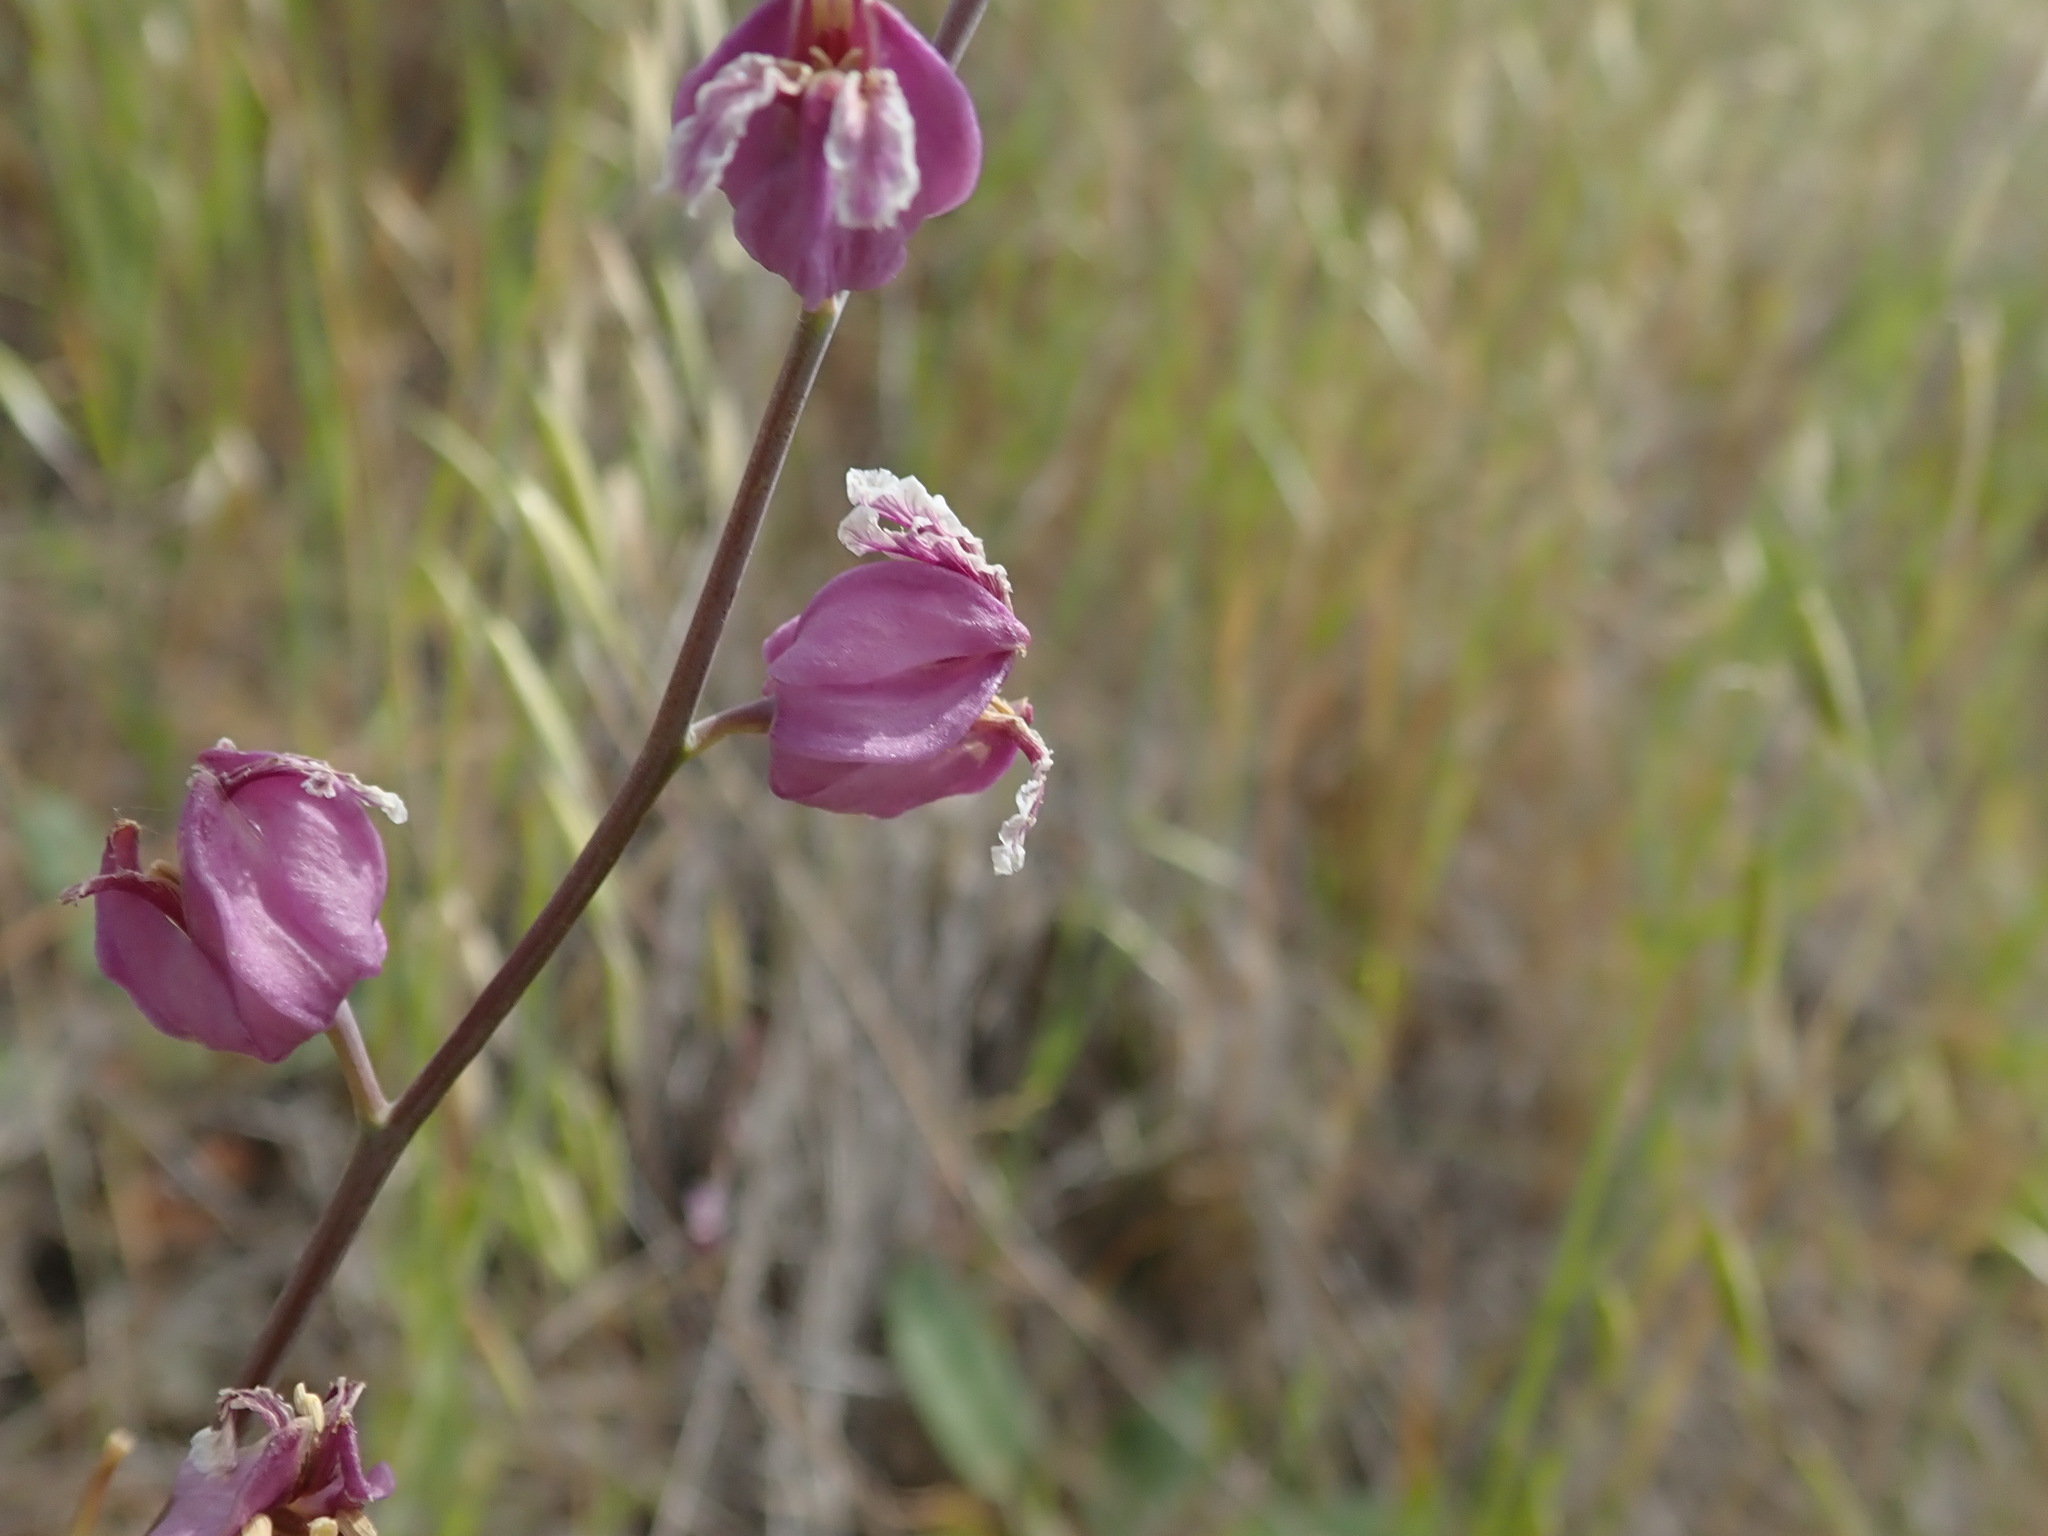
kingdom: Plantae
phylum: Tracheophyta
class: Magnoliopsida
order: Brassicales
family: Brassicaceae
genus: Streptanthus
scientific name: Streptanthus glandulosus
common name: Jewel-flower
